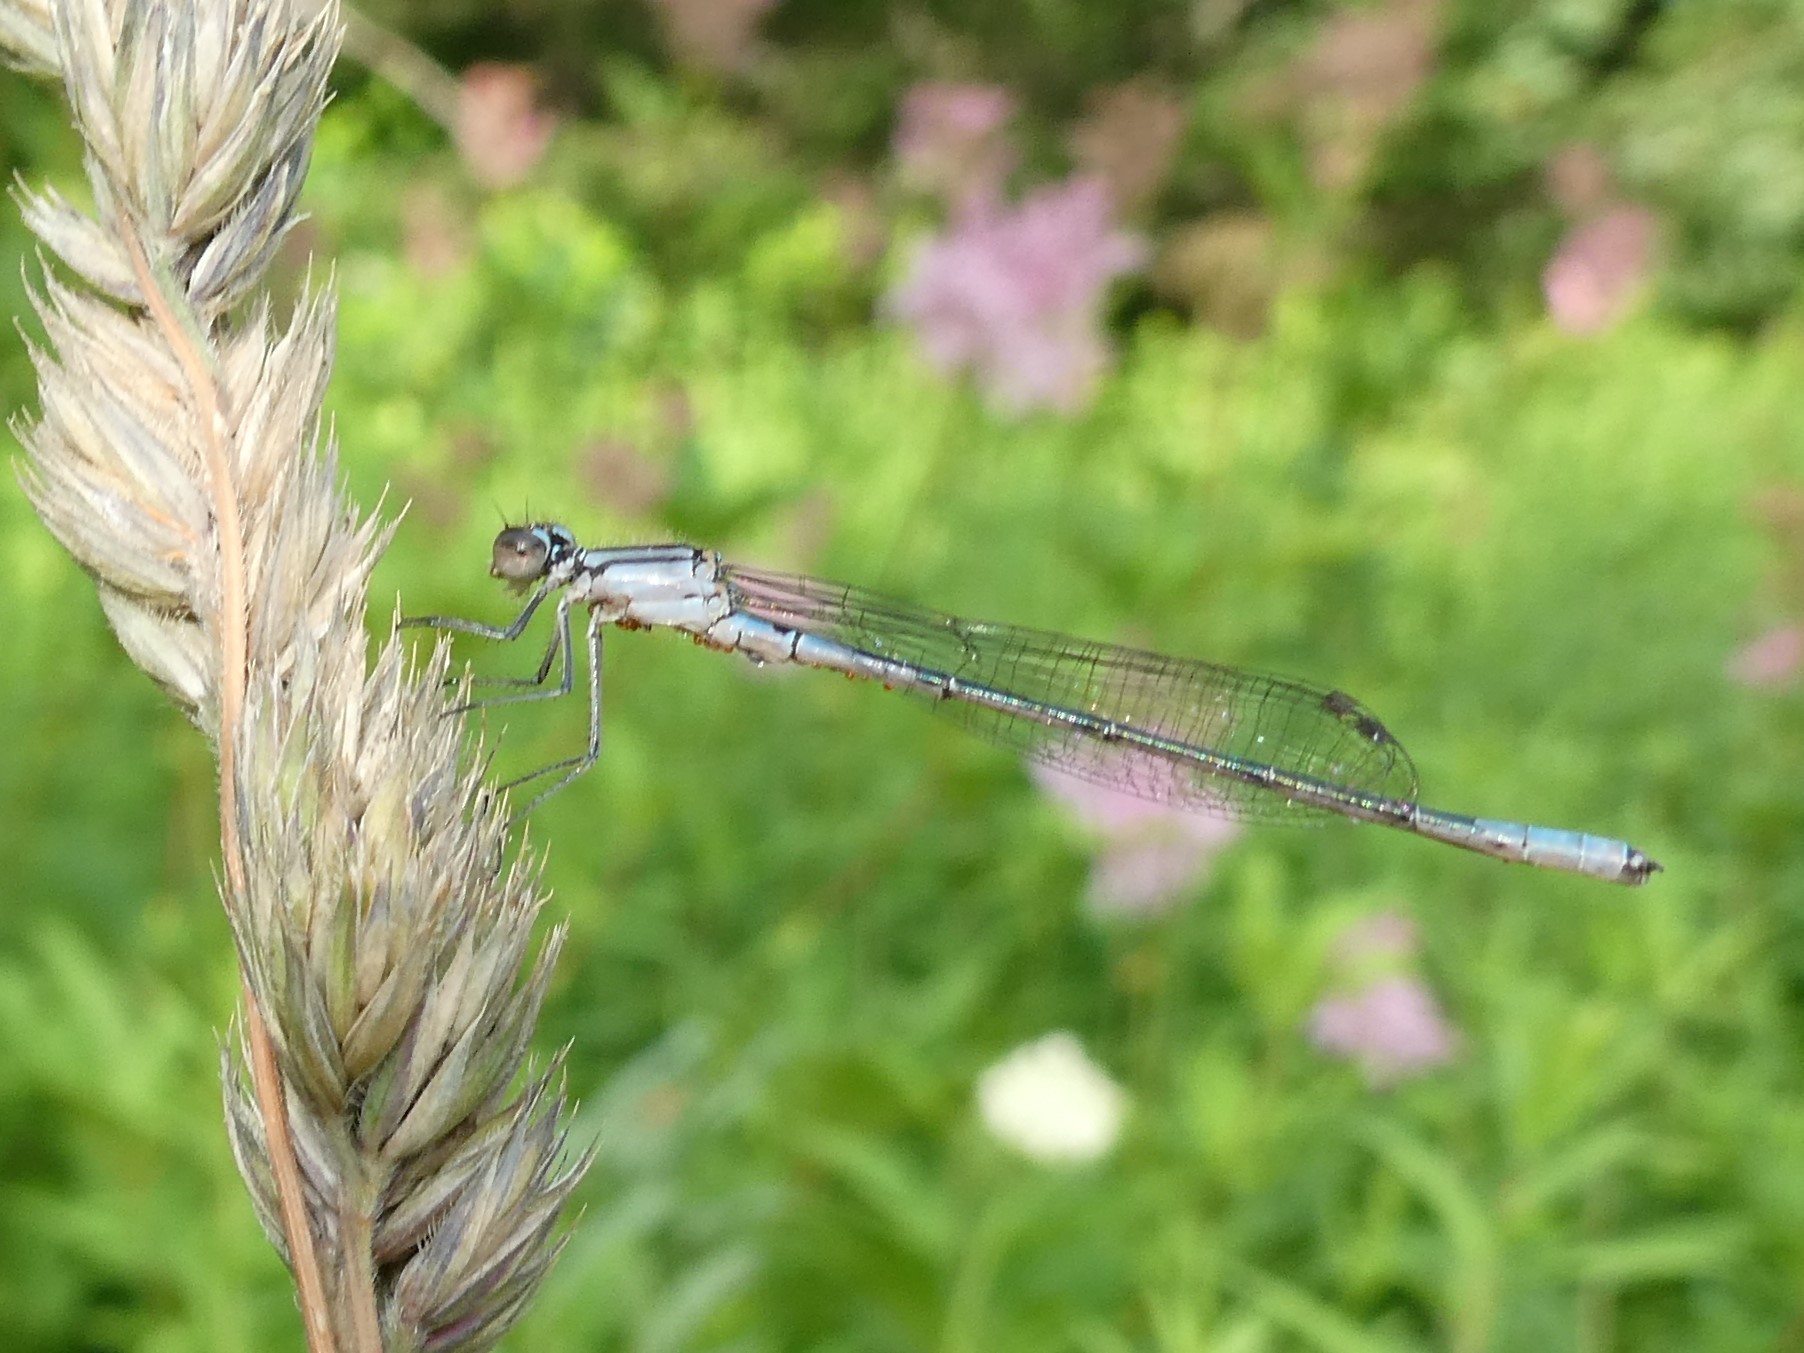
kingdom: Animalia
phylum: Arthropoda
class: Insecta
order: Odonata
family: Coenagrionidae
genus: Enallagma
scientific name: Enallagma aspersum
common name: Azure bluet
